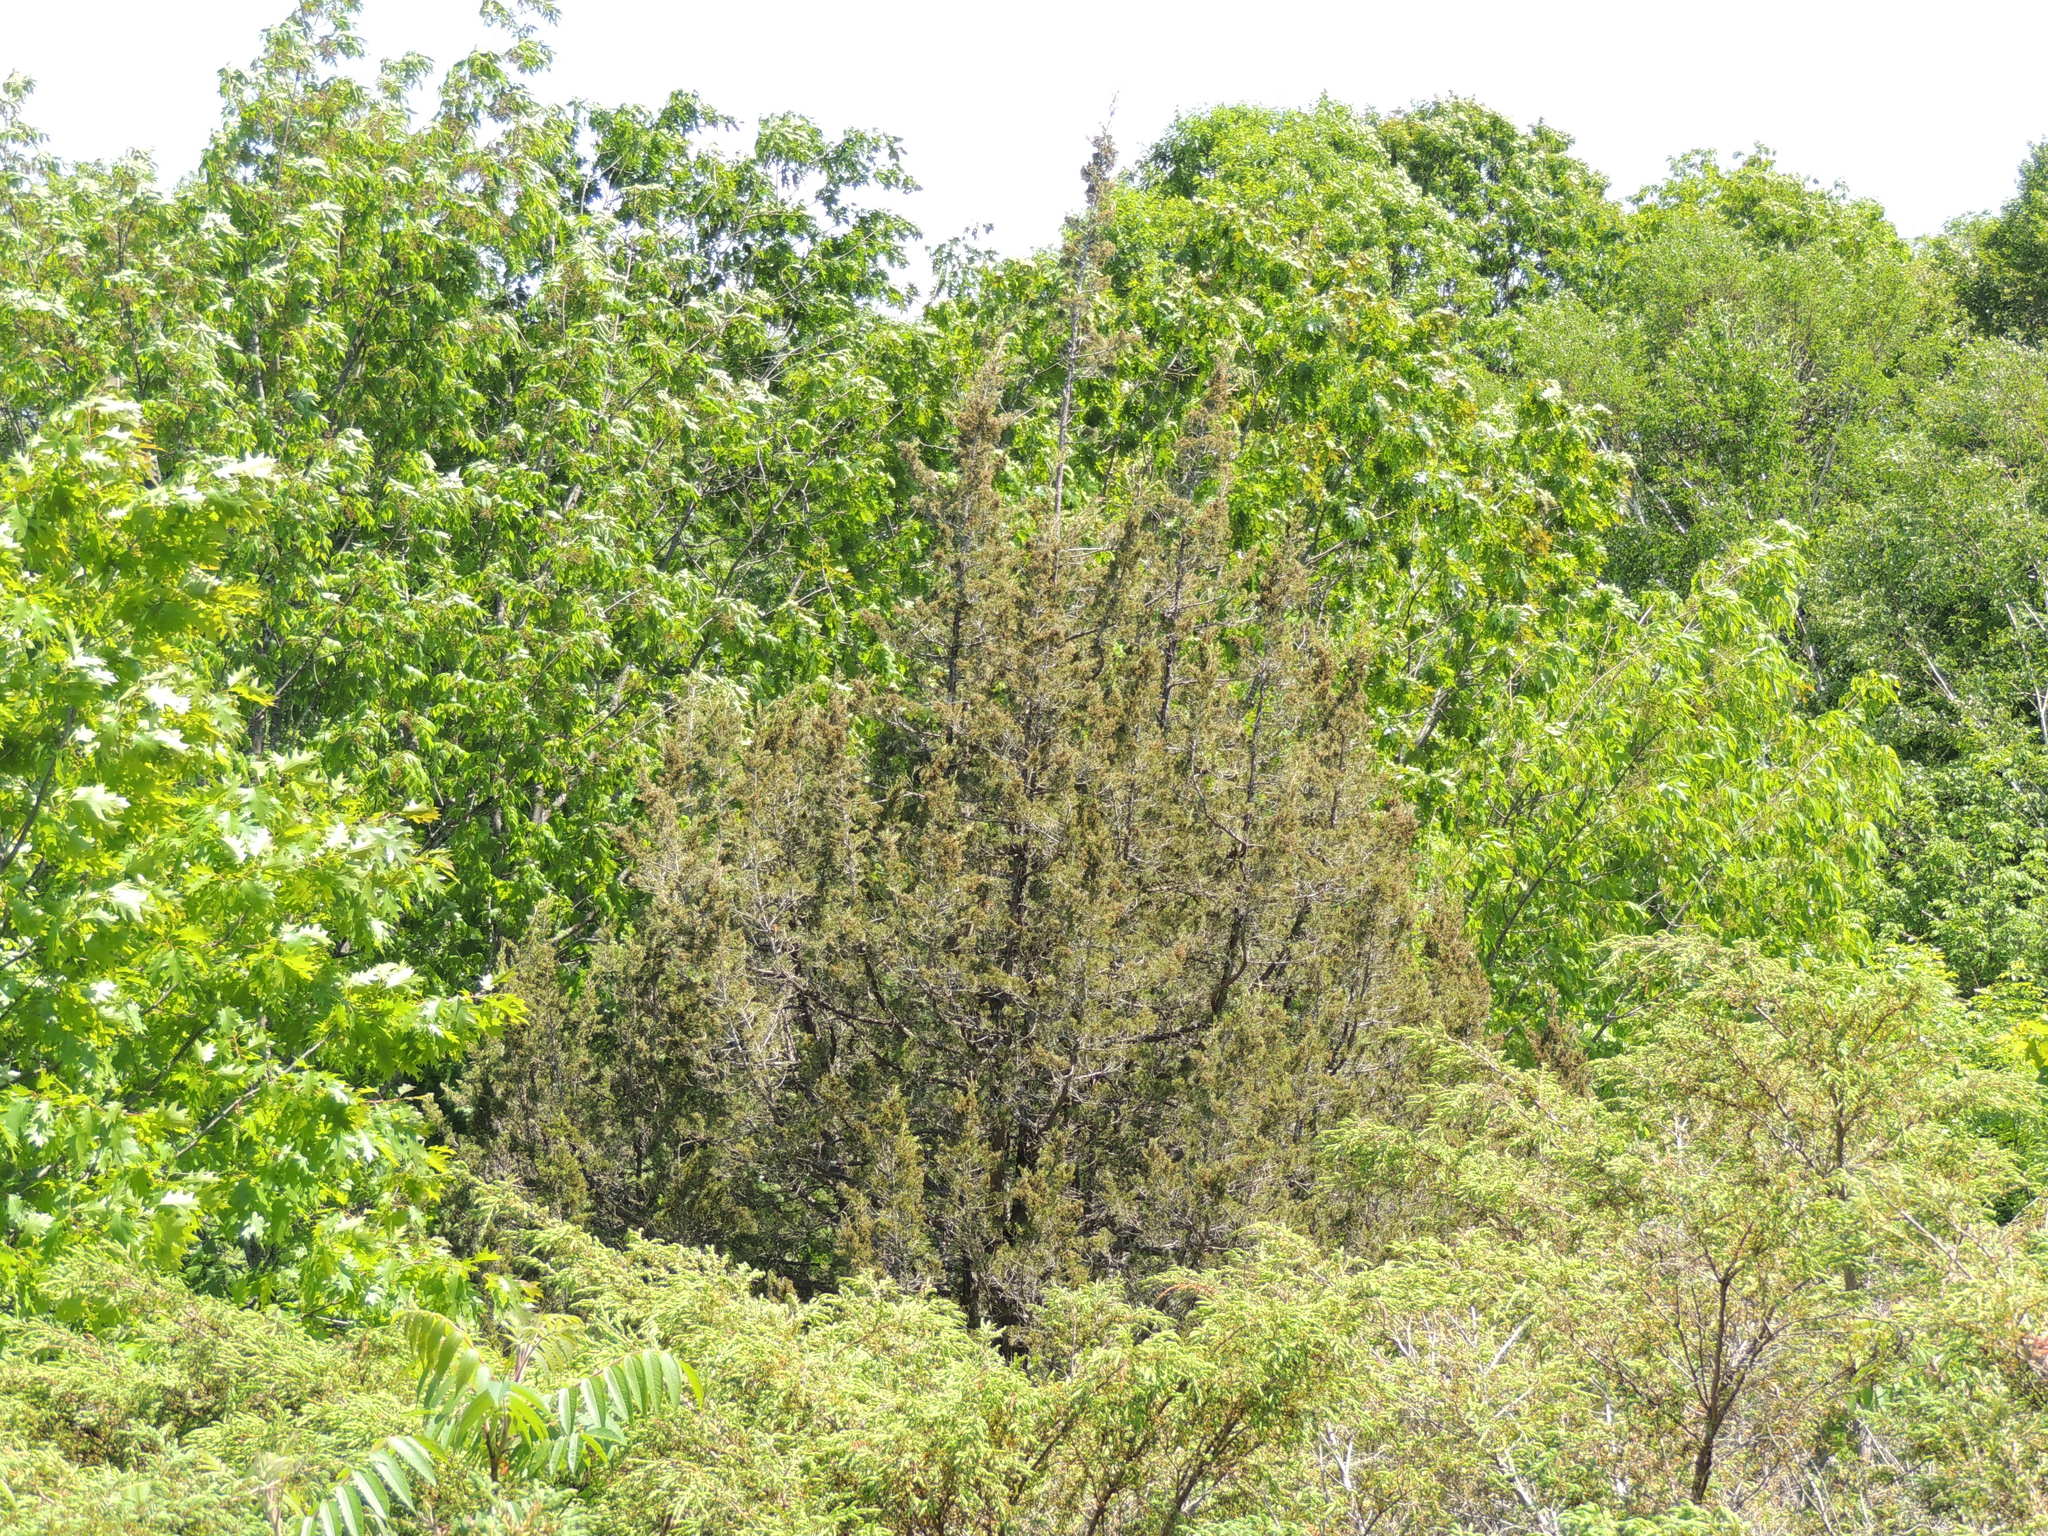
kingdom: Plantae
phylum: Tracheophyta
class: Pinopsida
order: Pinales
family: Cupressaceae
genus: Juniperus
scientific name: Juniperus virginiana
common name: Red juniper
